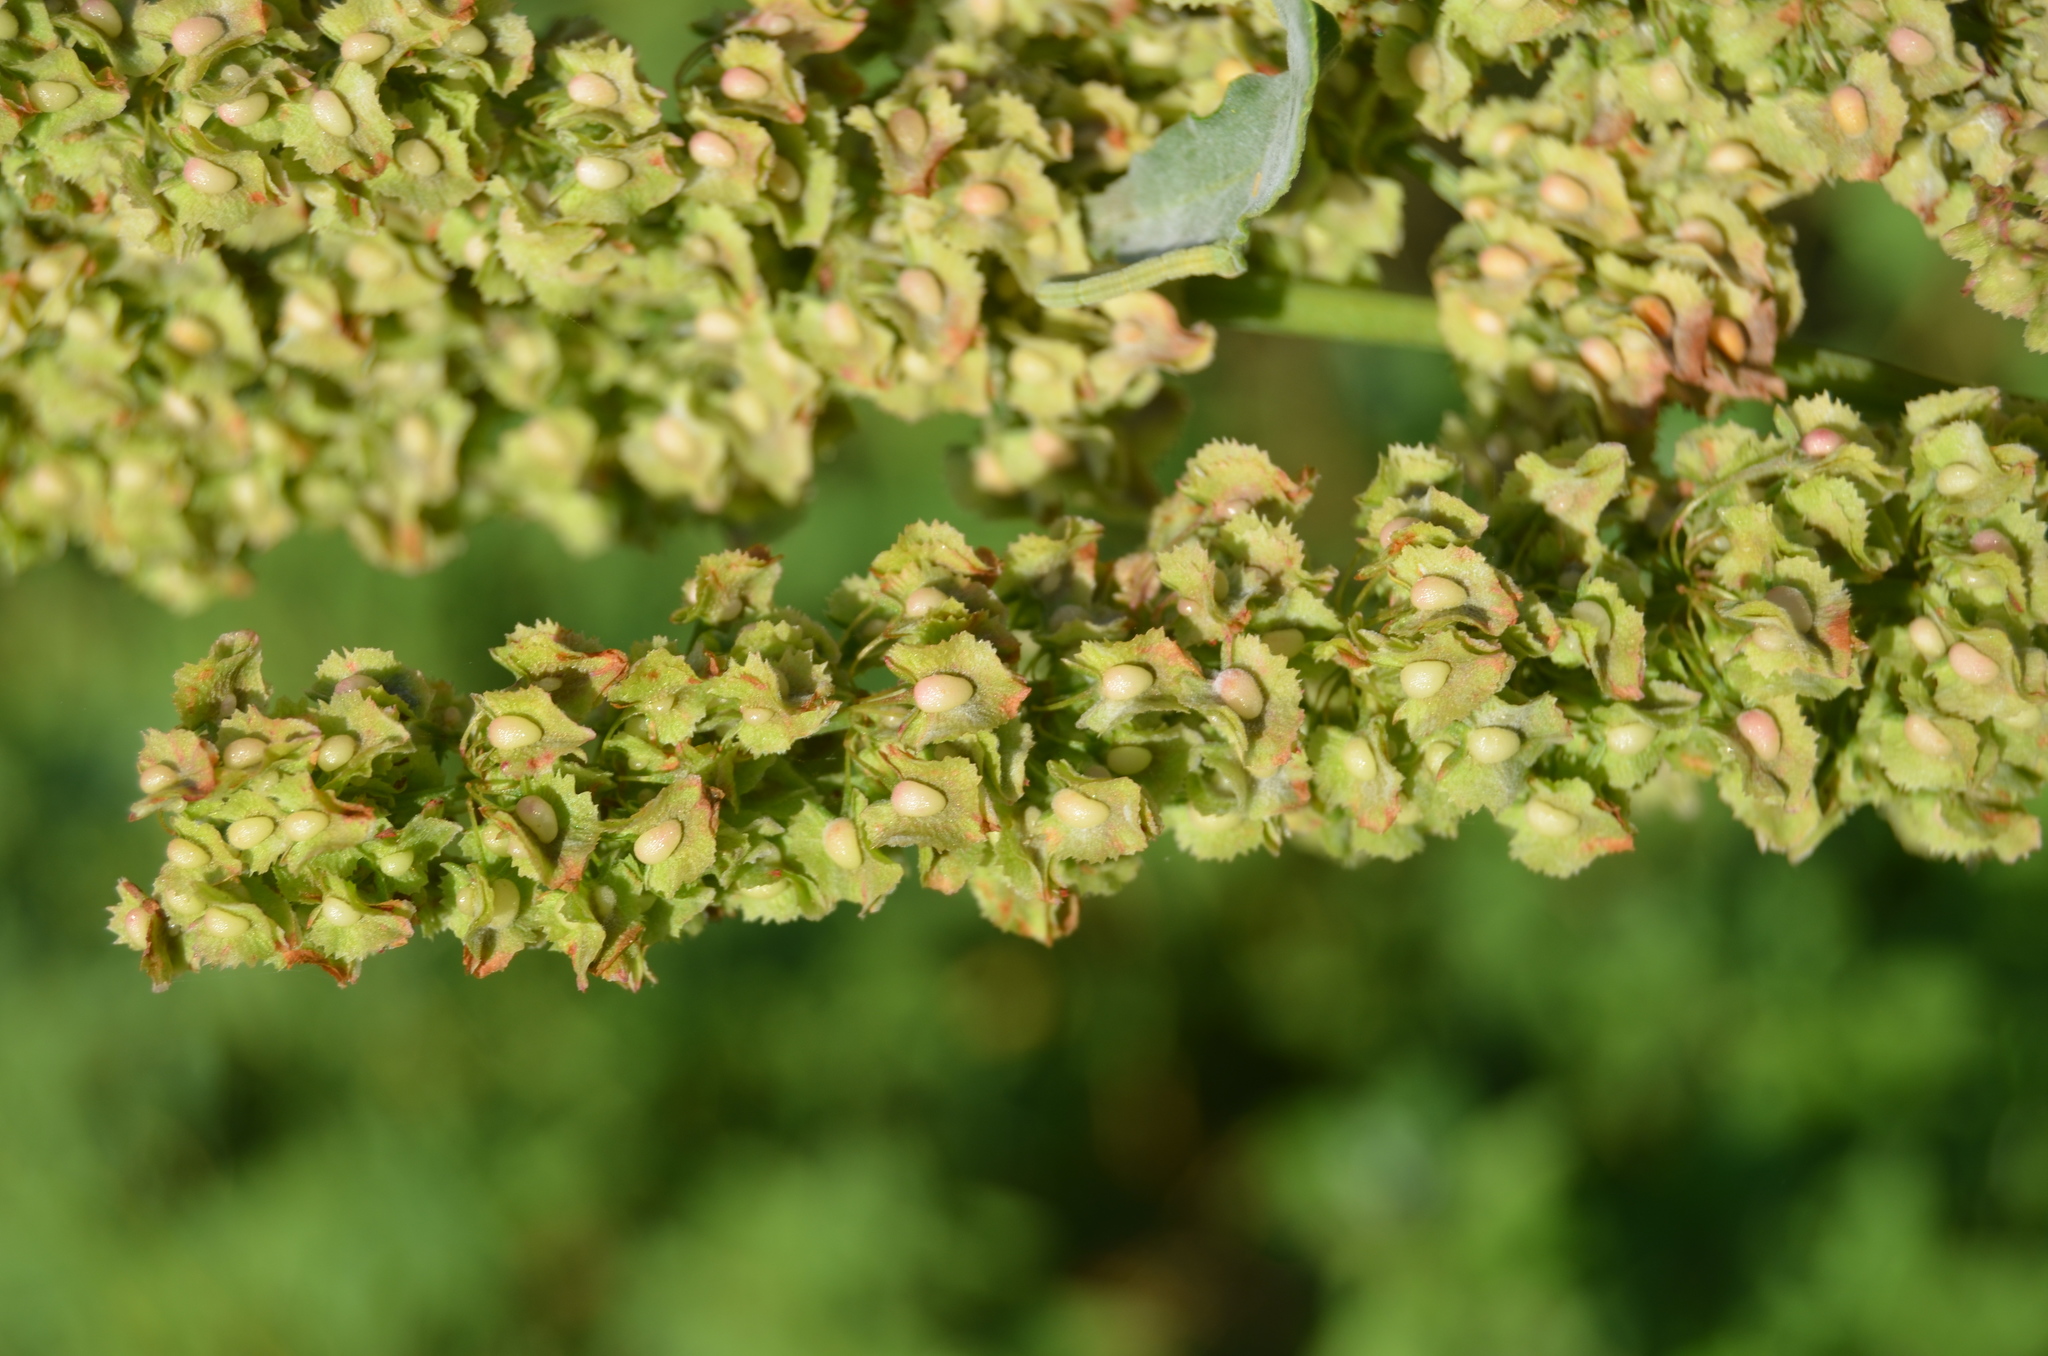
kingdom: Plantae
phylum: Tracheophyta
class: Magnoliopsida
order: Caryophyllales
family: Polygonaceae
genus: Rumex
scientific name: Rumex cristatus
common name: Greek dock
